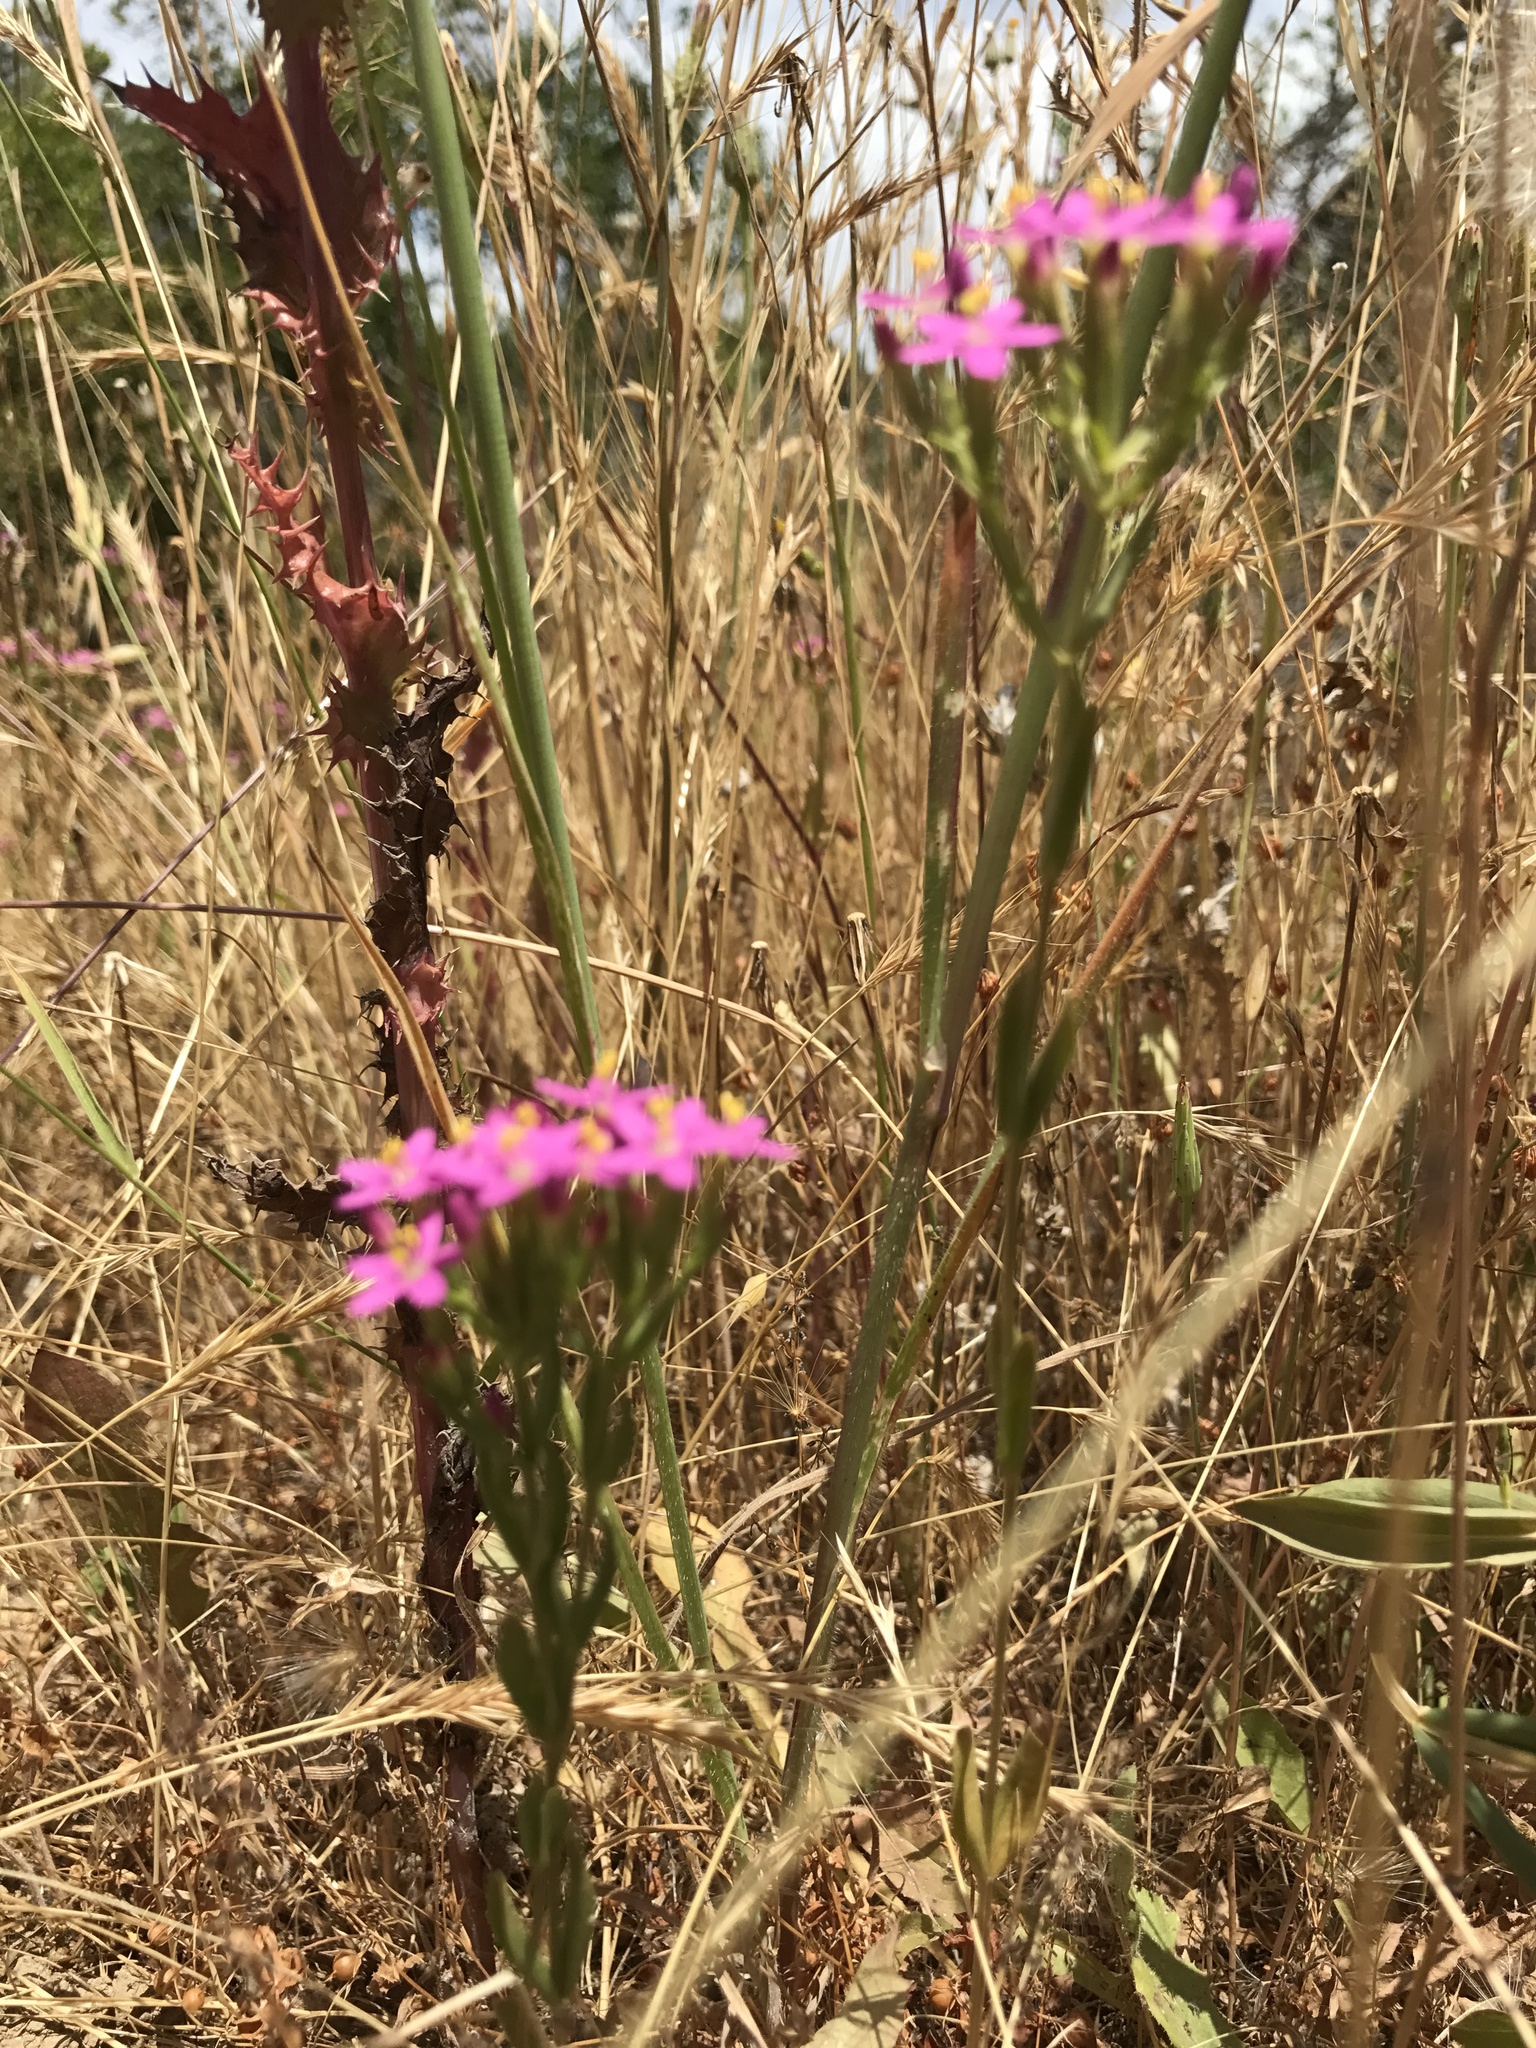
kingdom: Plantae
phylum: Tracheophyta
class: Magnoliopsida
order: Gentianales
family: Gentianaceae
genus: Zeltnera
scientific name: Zeltnera muhlenbergii
